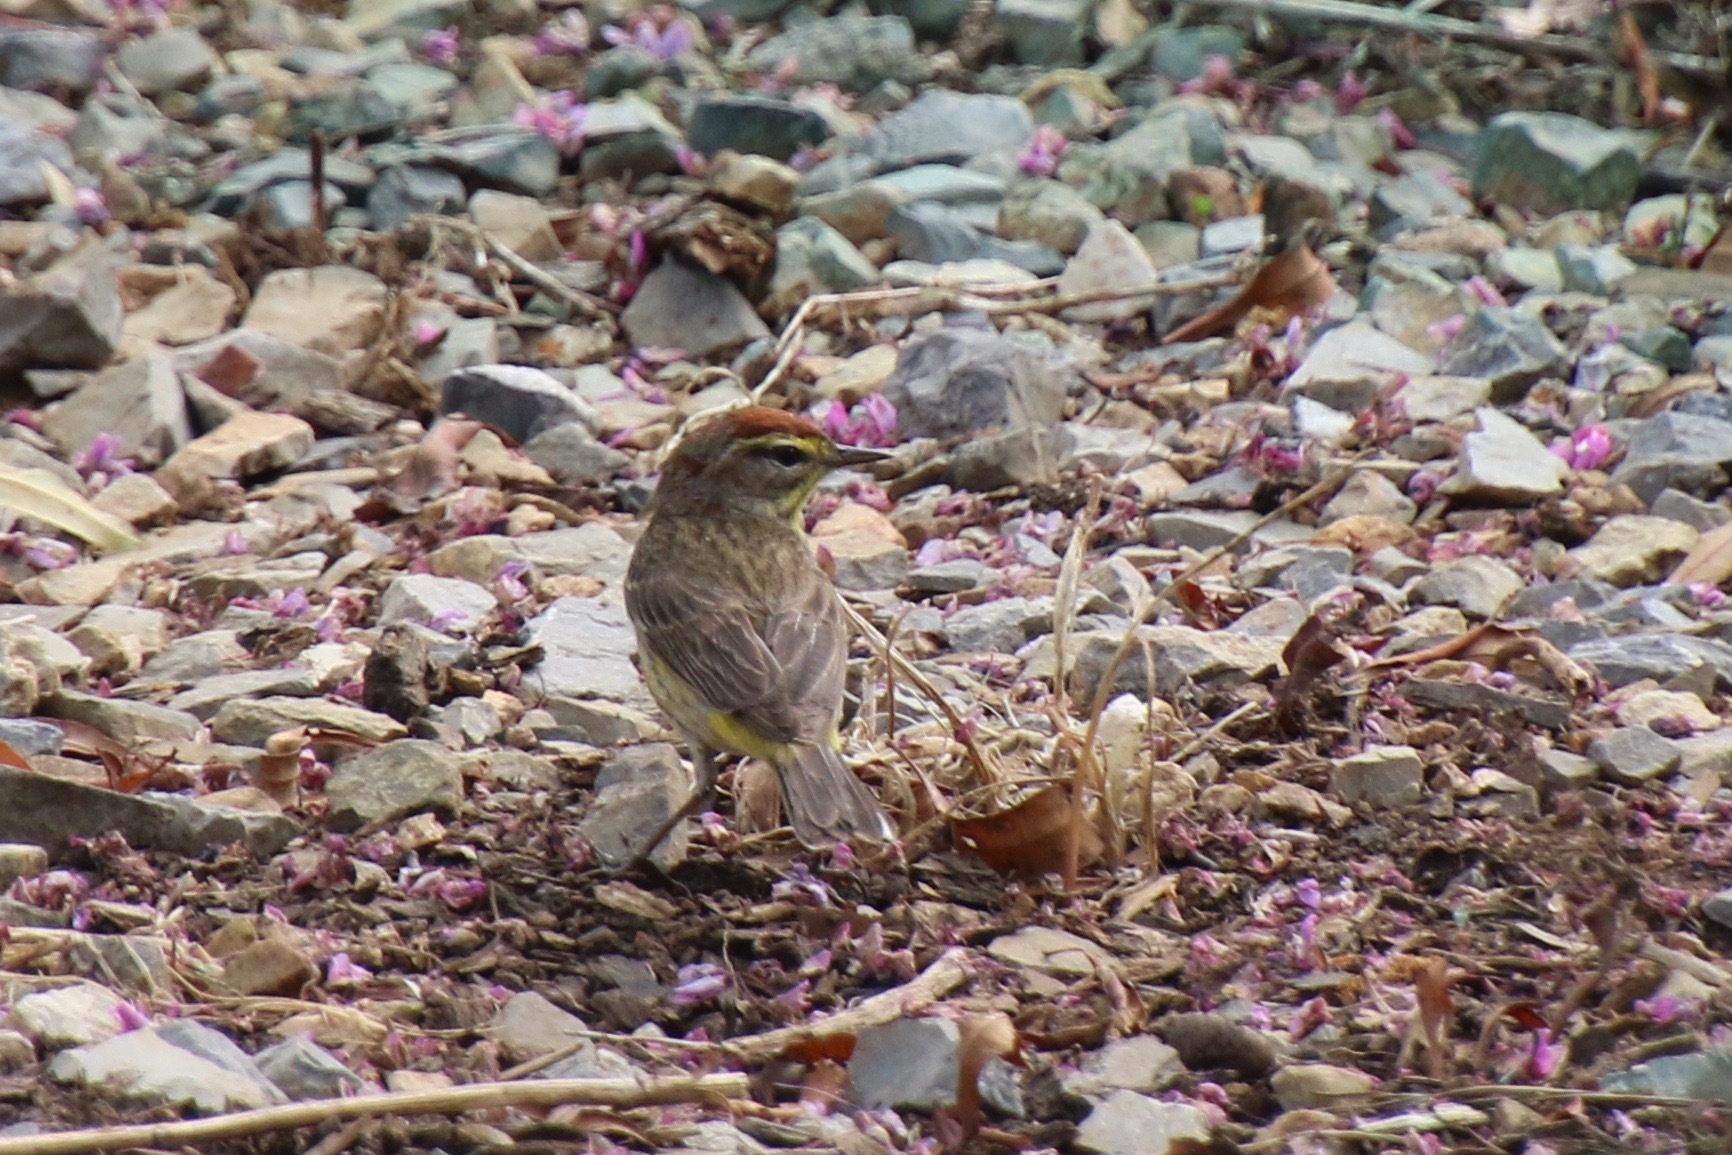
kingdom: Animalia
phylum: Chordata
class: Aves
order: Passeriformes
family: Parulidae
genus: Setophaga
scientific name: Setophaga palmarum
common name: Palm warbler
